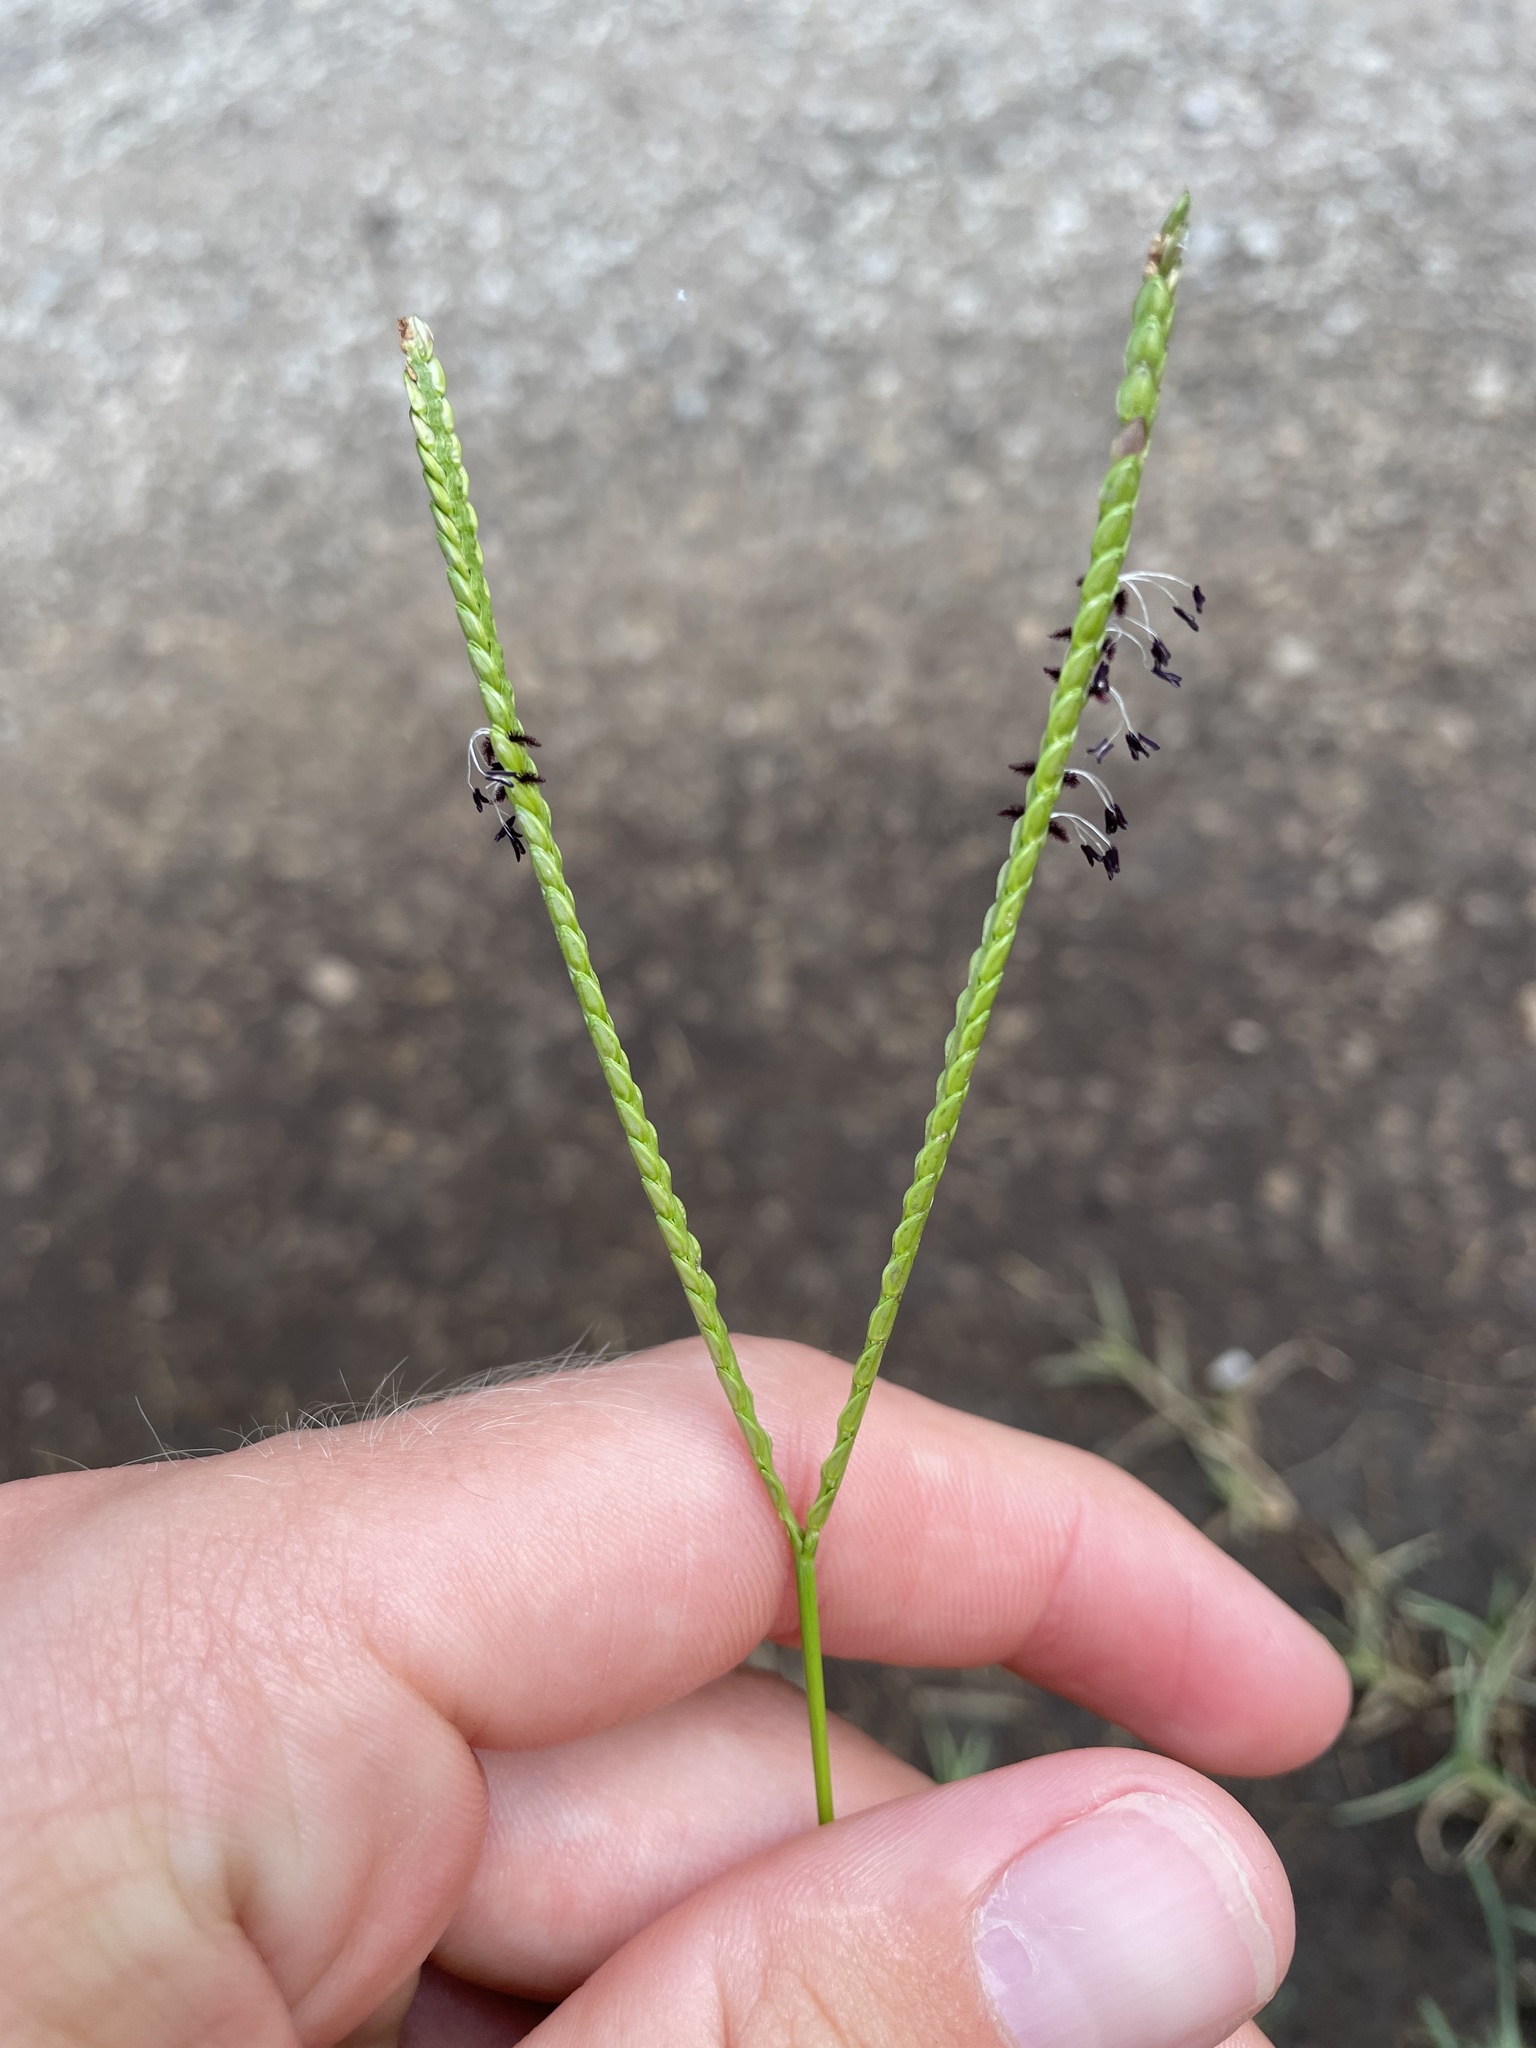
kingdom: Plantae
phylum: Tracheophyta
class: Liliopsida
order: Poales
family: Poaceae
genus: Paspalum
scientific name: Paspalum notatum
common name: Bahiagrass
